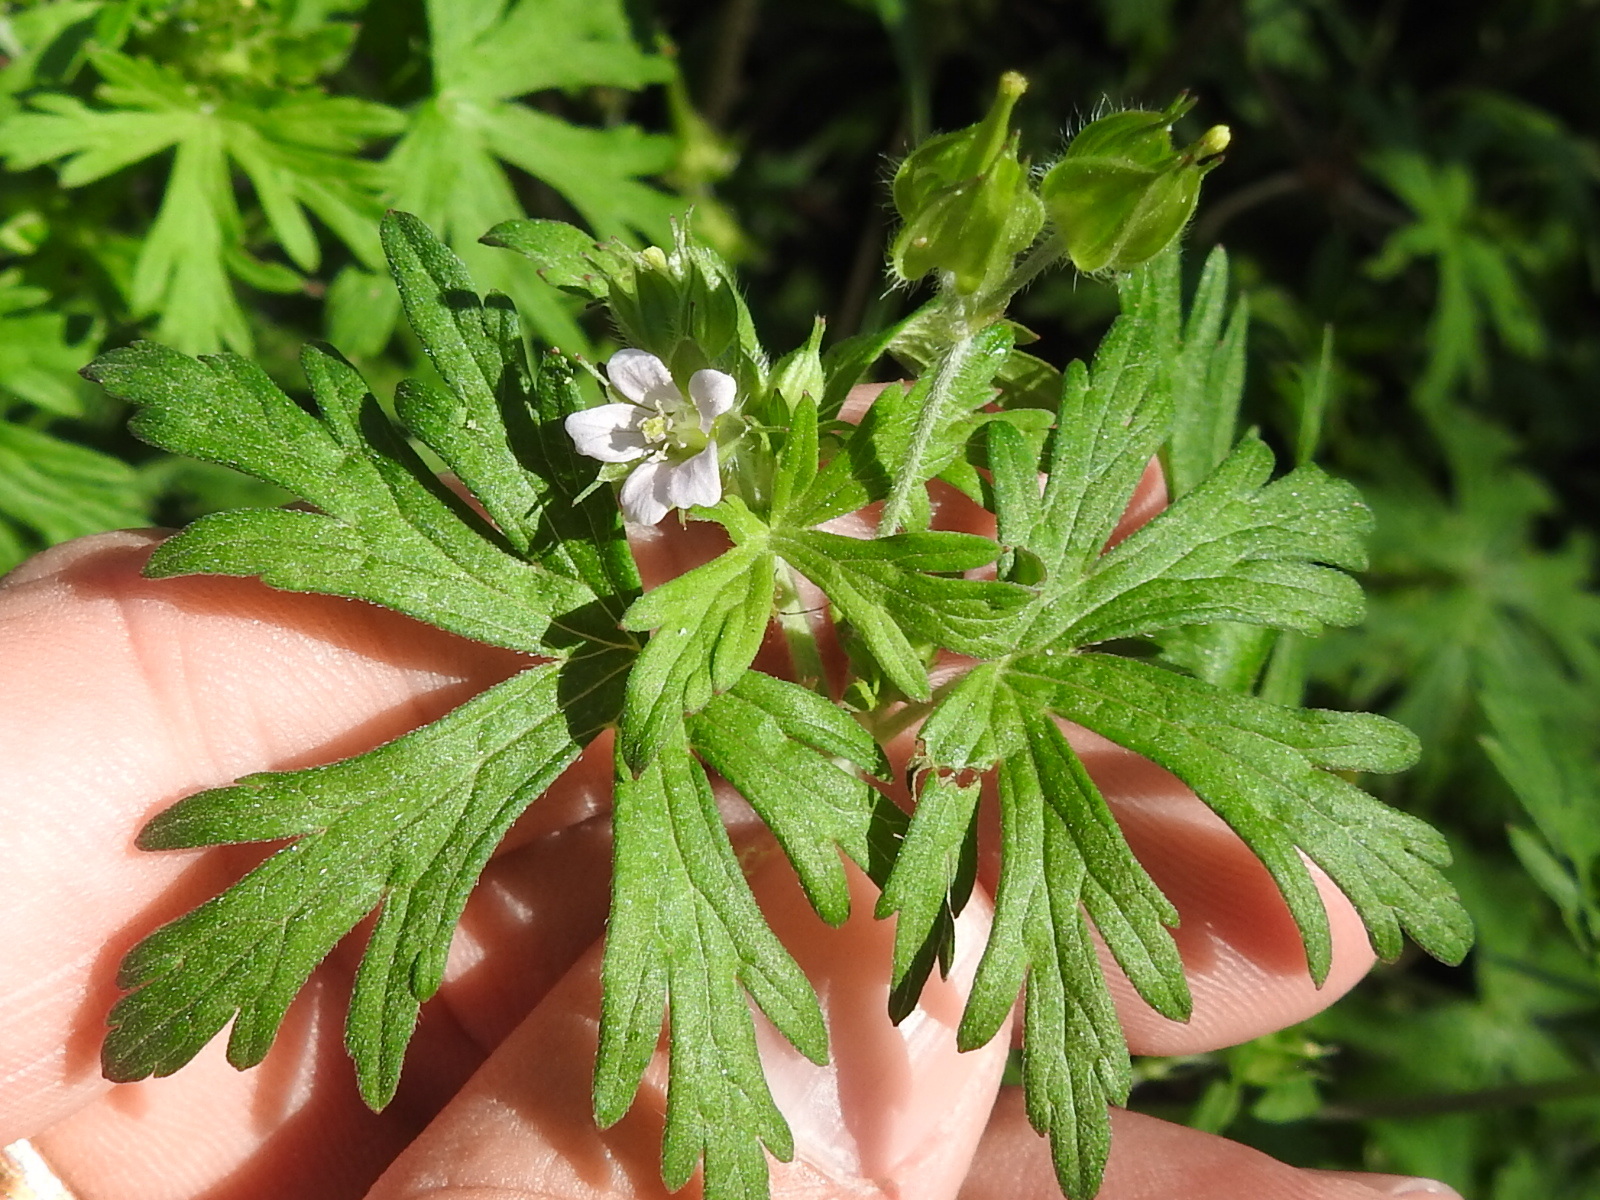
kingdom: Plantae
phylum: Tracheophyta
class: Magnoliopsida
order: Geraniales
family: Geraniaceae
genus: Geranium
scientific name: Geranium carolinianum
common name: Carolina crane's-bill
